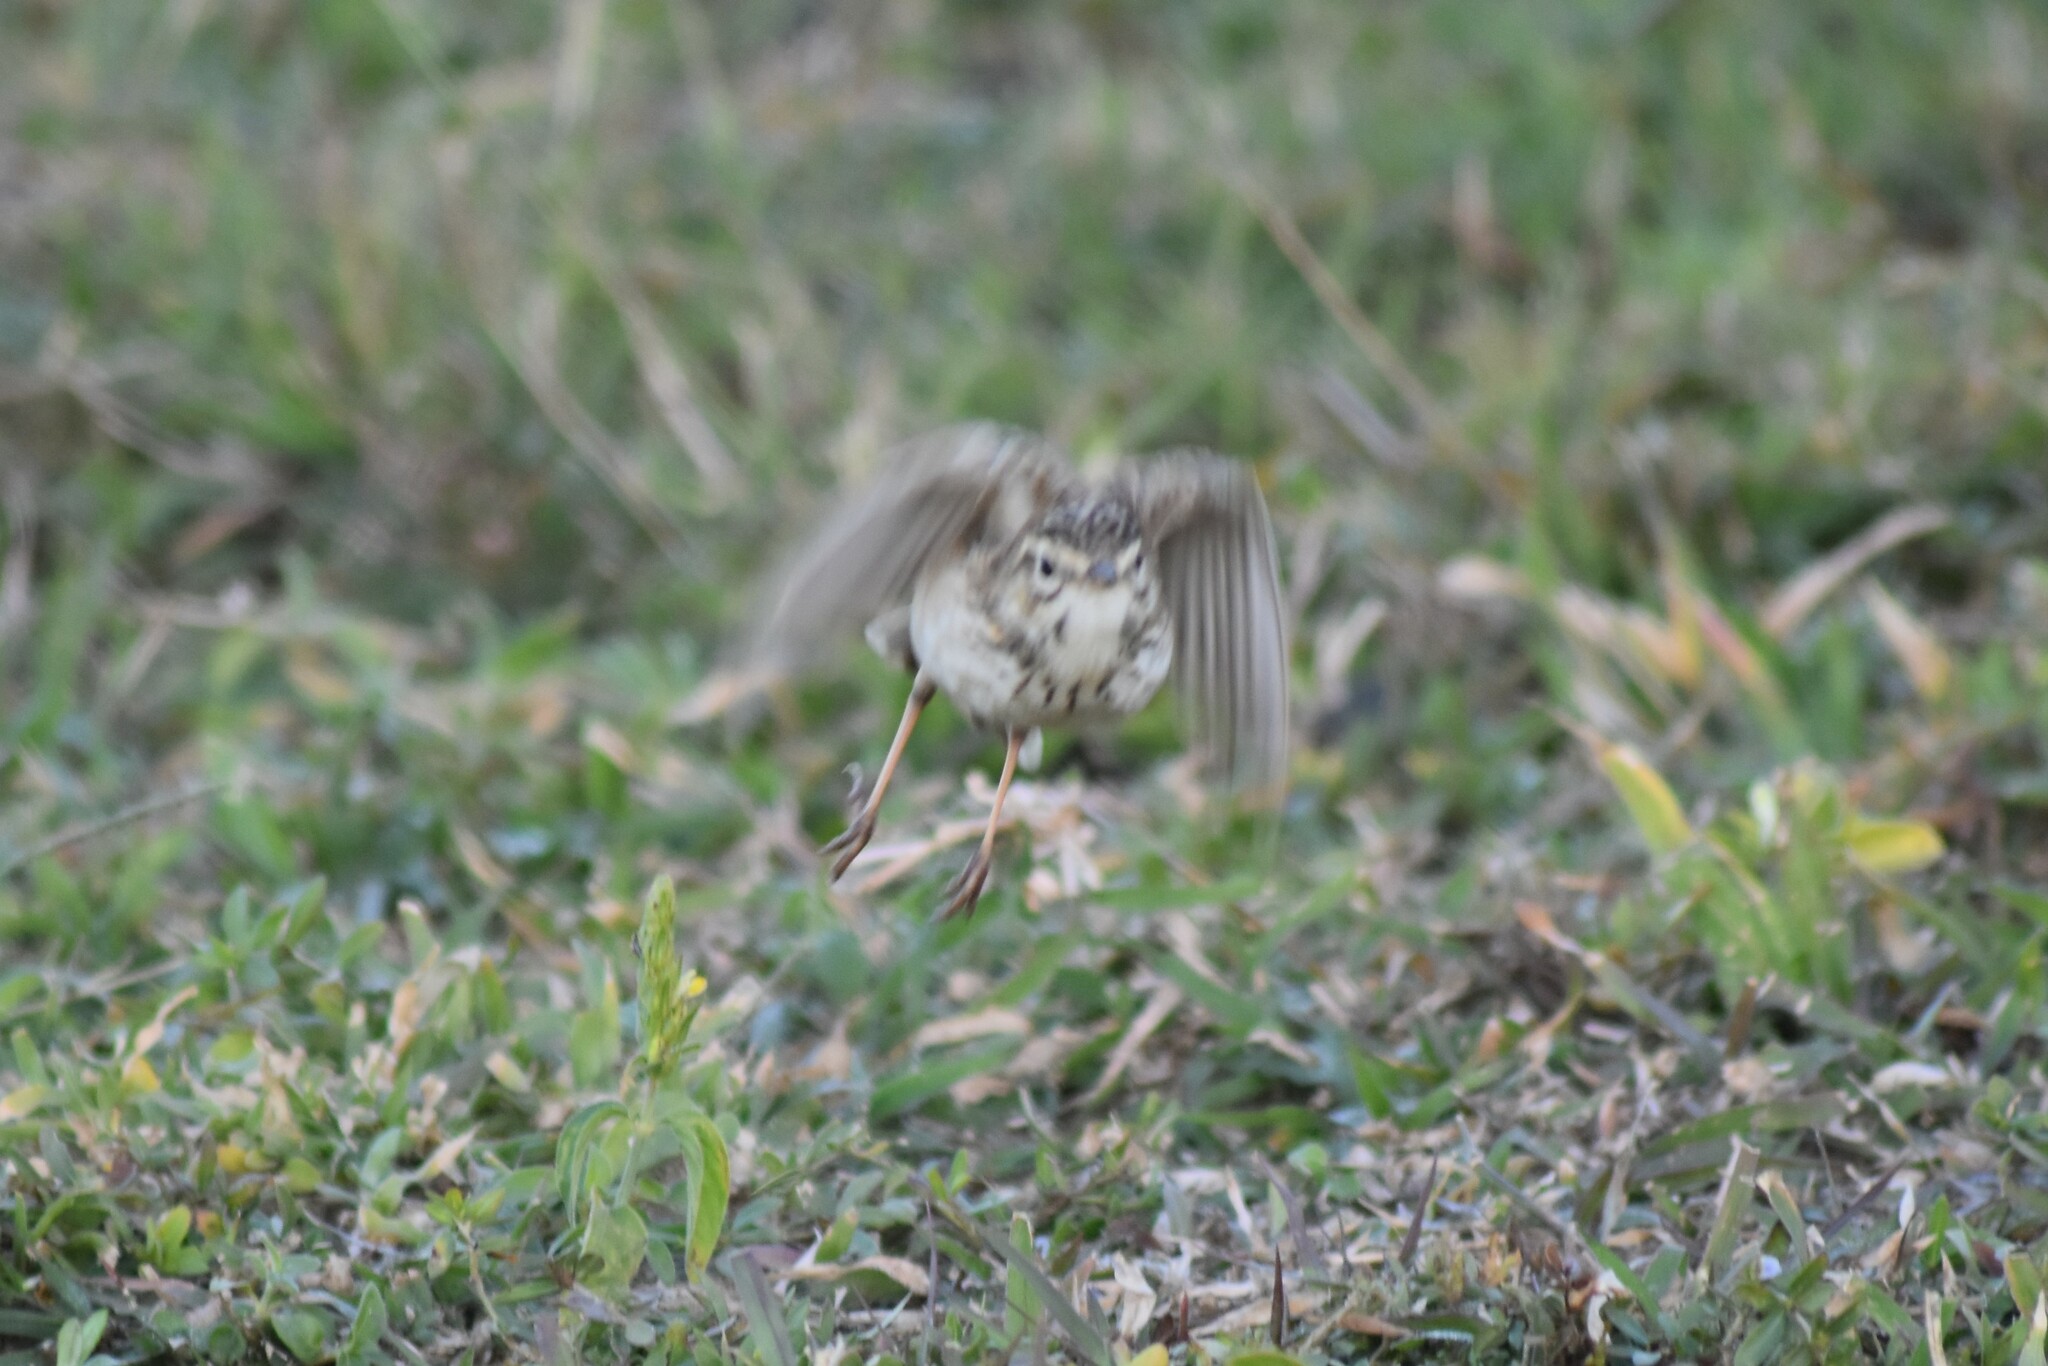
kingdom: Animalia
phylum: Chordata
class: Aves
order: Passeriformes
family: Motacillidae
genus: Anthus
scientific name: Anthus cinnamomeus
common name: African pipit
